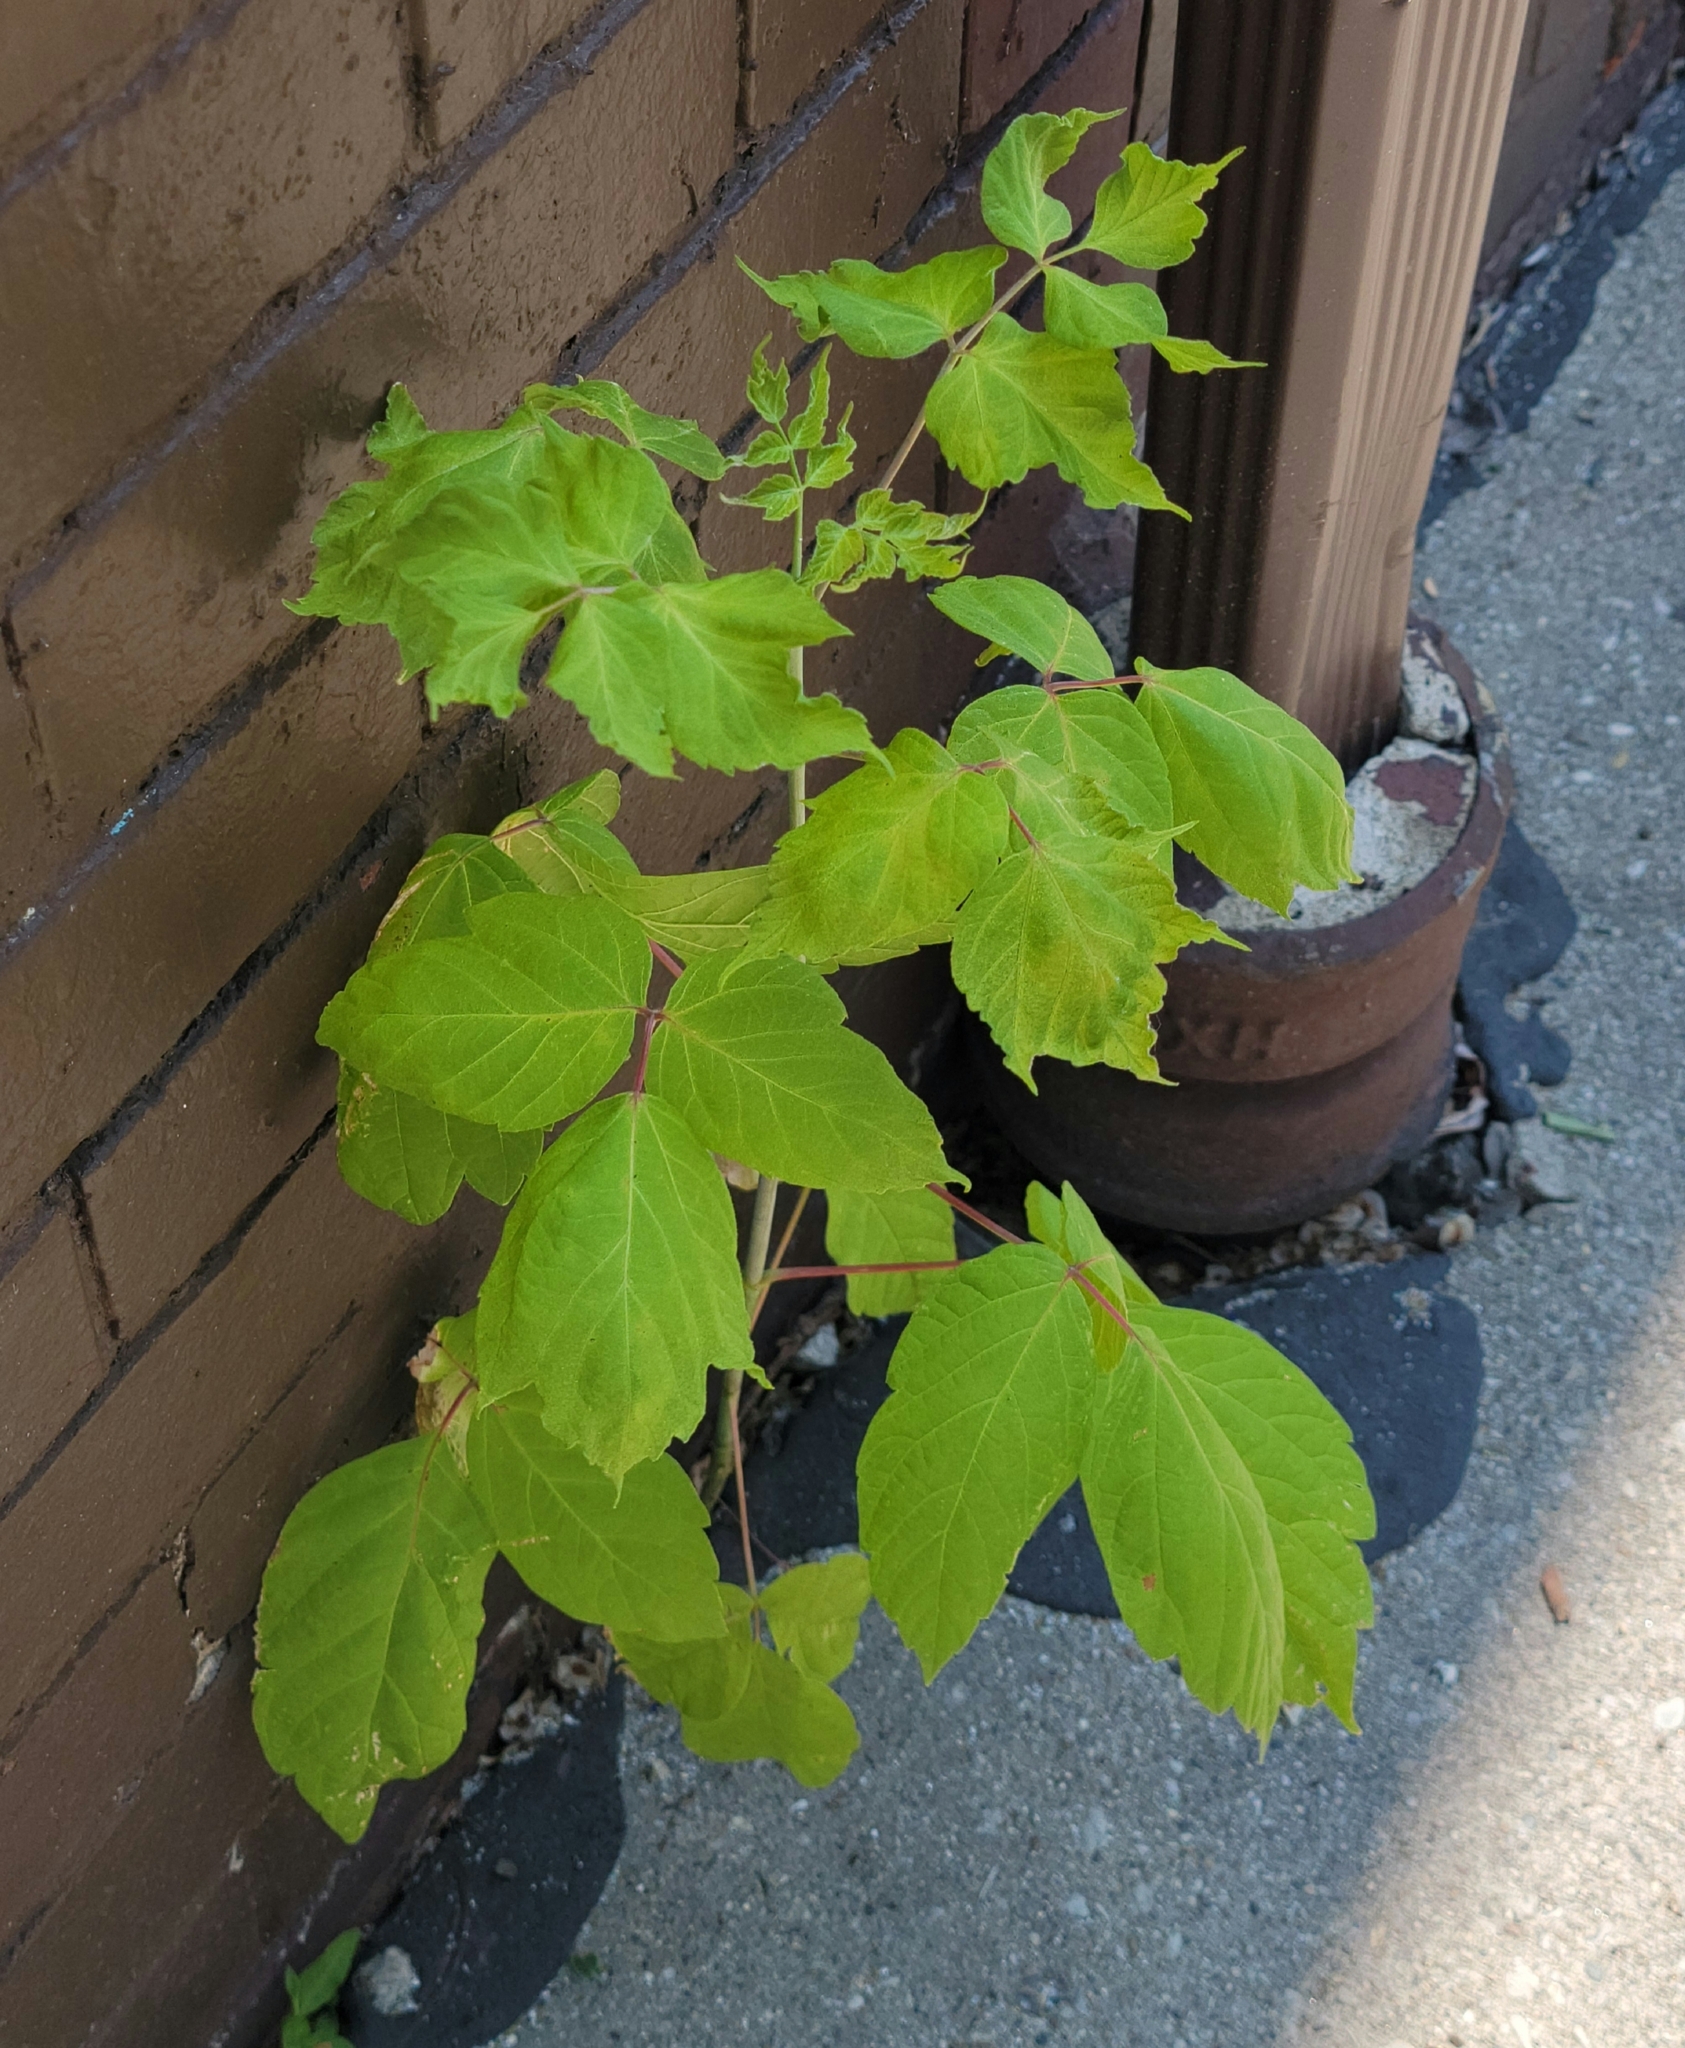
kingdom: Plantae
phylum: Tracheophyta
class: Magnoliopsida
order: Sapindales
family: Sapindaceae
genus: Acer
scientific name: Acer negundo
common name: Ashleaf maple
